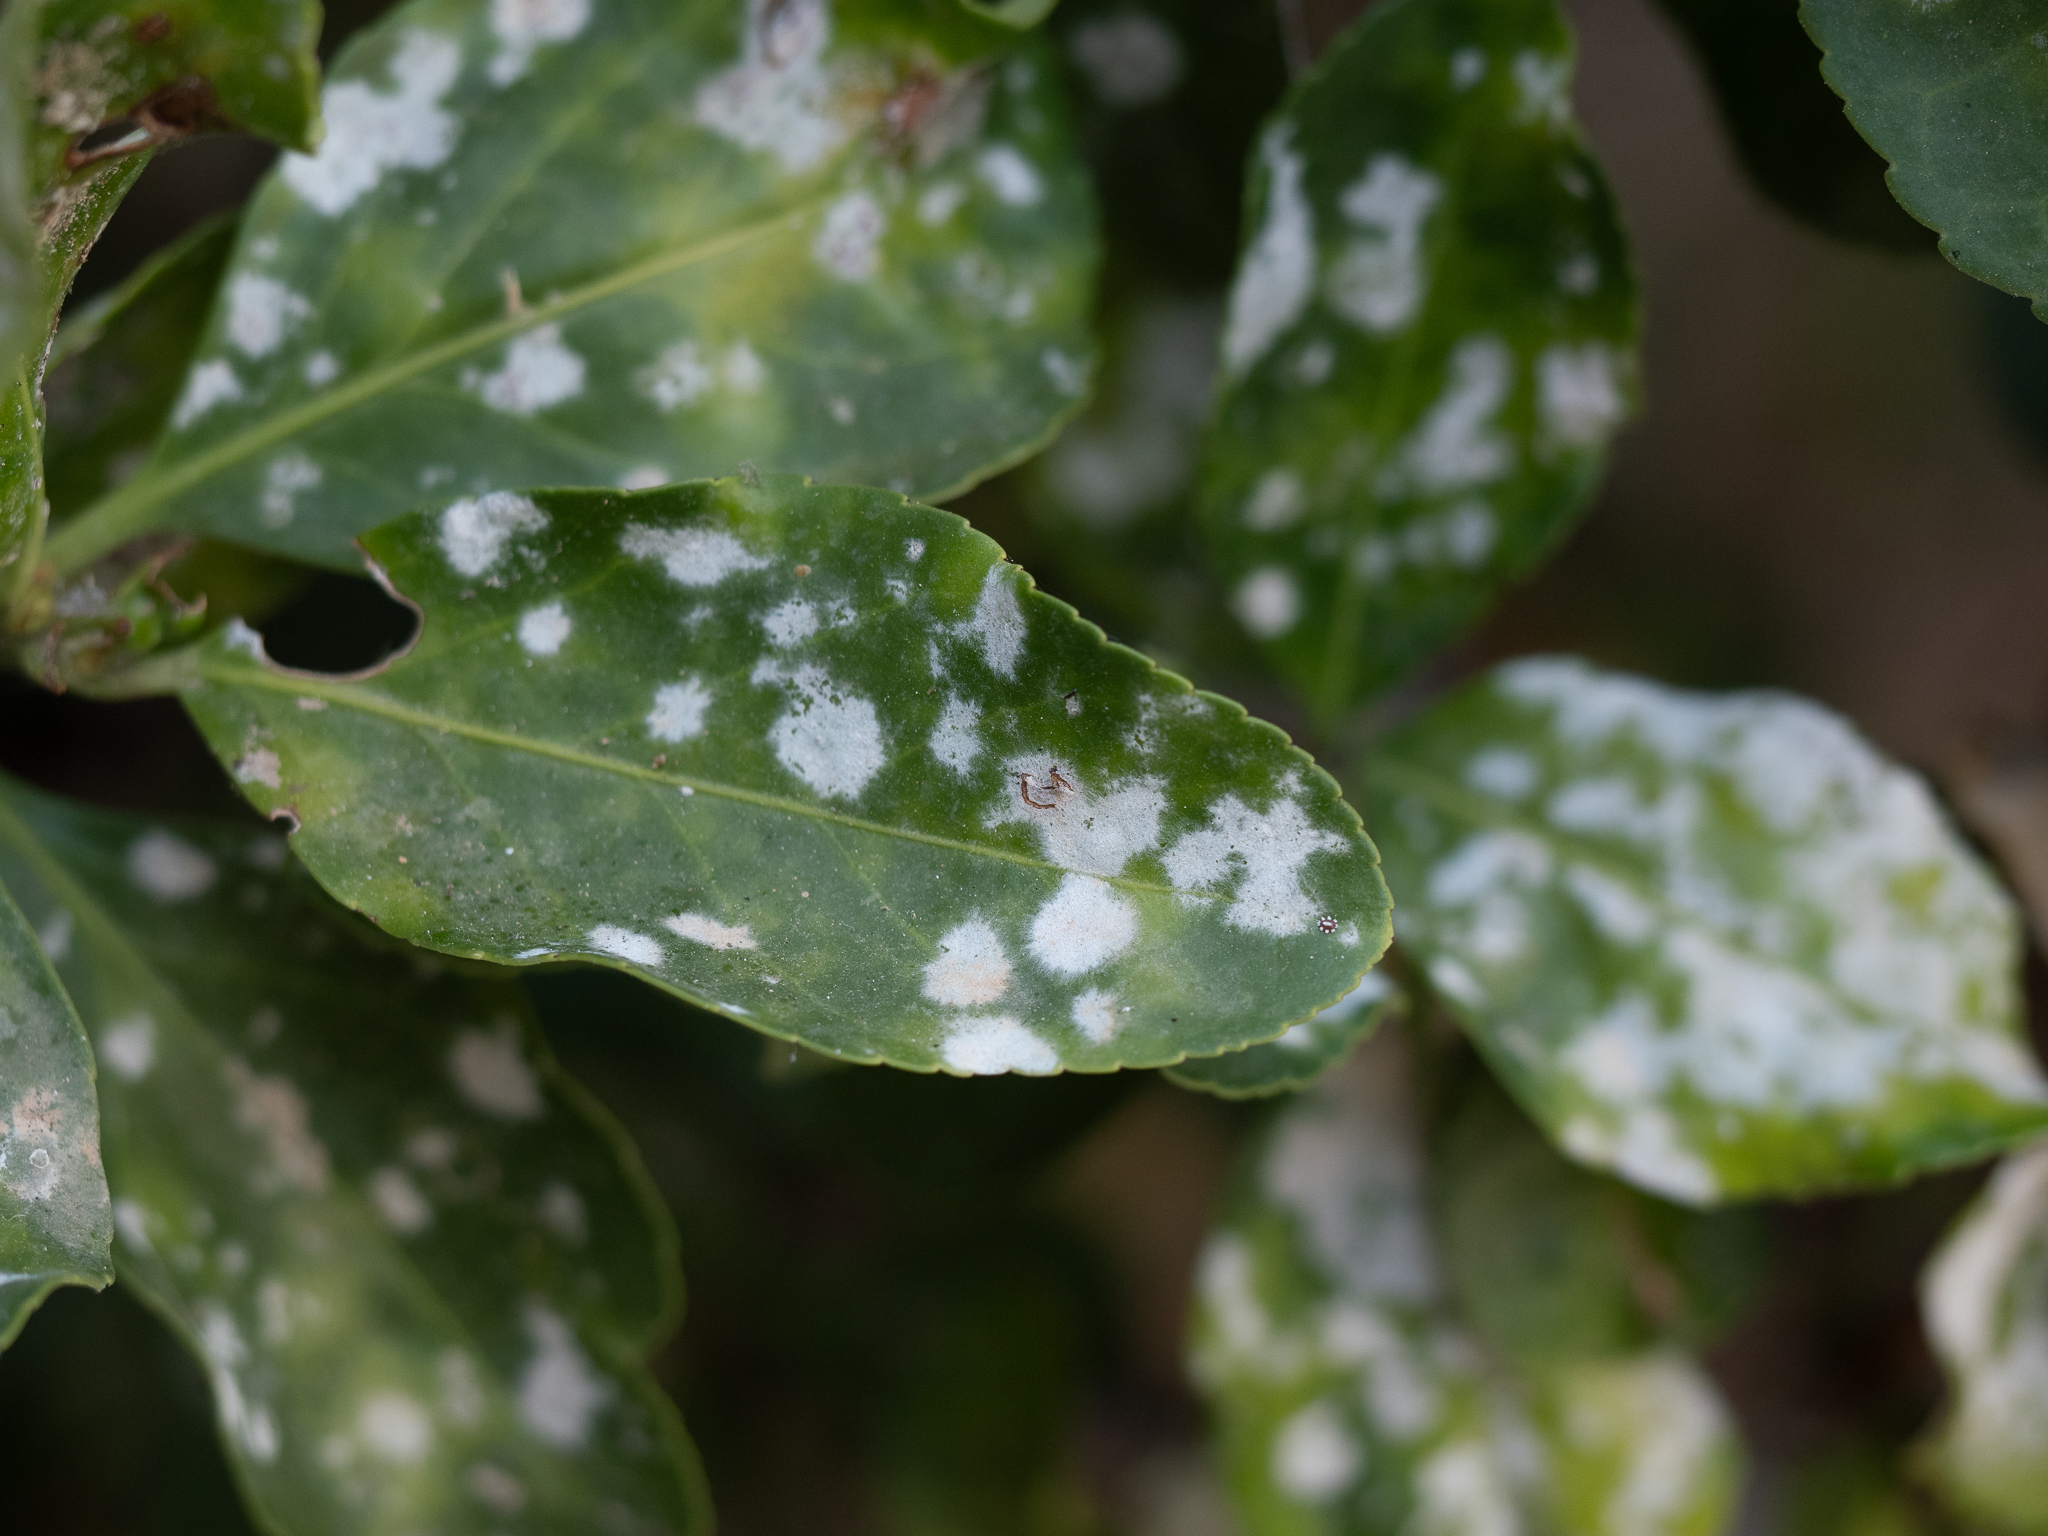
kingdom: Fungi
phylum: Ascomycota
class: Leotiomycetes
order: Helotiales
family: Erysiphaceae
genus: Erysiphe
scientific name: Erysiphe euonymicola
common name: Spindletree mildew
